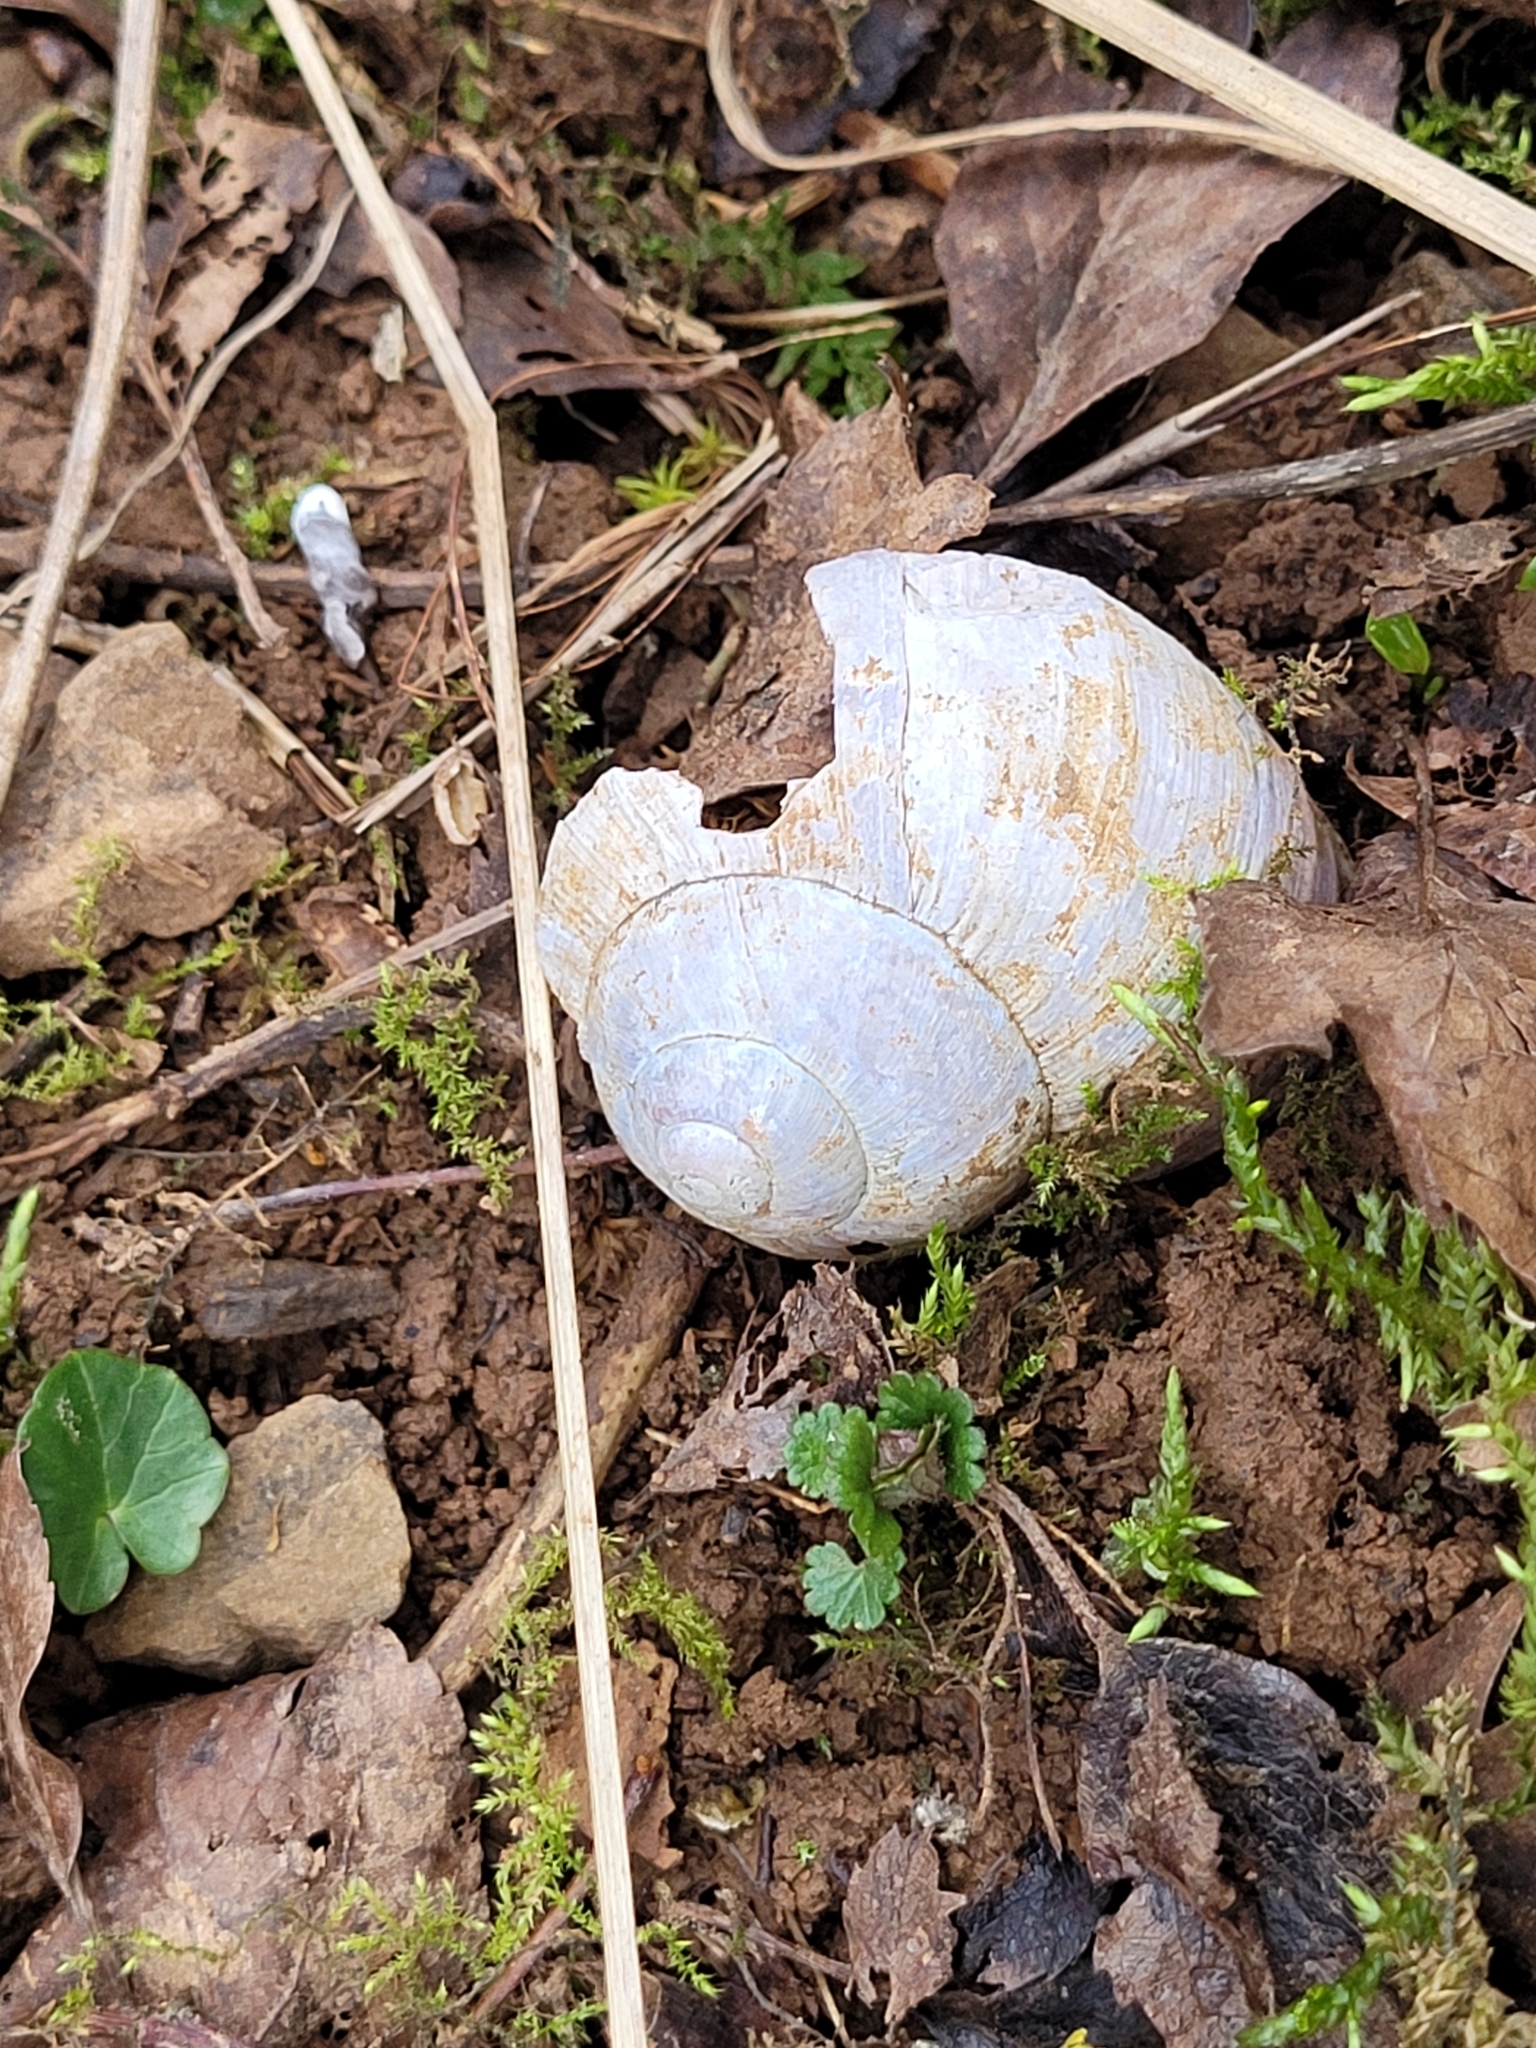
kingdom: Animalia
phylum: Mollusca
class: Gastropoda
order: Stylommatophora
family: Helicidae
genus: Helix
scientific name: Helix pomatia
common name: Roman snail
